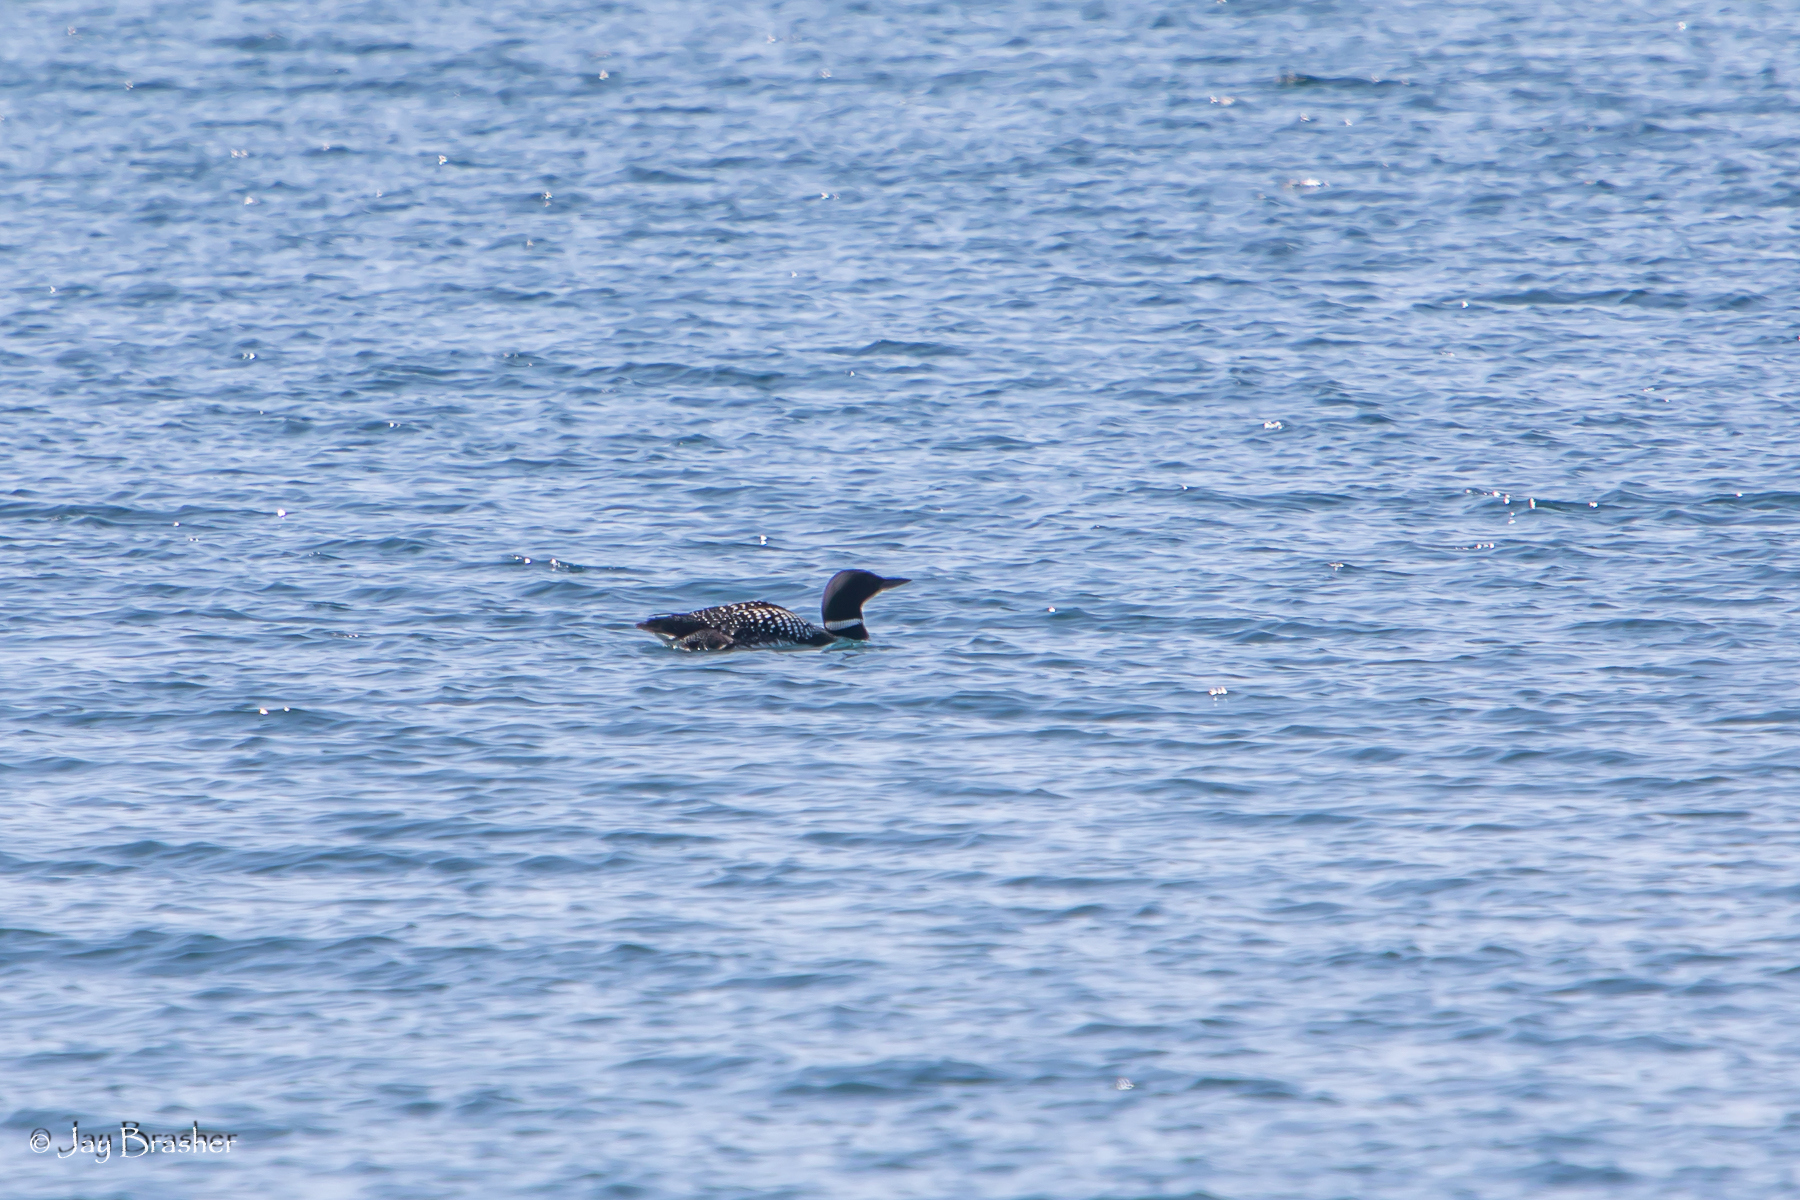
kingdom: Animalia
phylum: Chordata
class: Aves
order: Gaviiformes
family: Gaviidae
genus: Gavia
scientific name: Gavia immer
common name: Common loon
